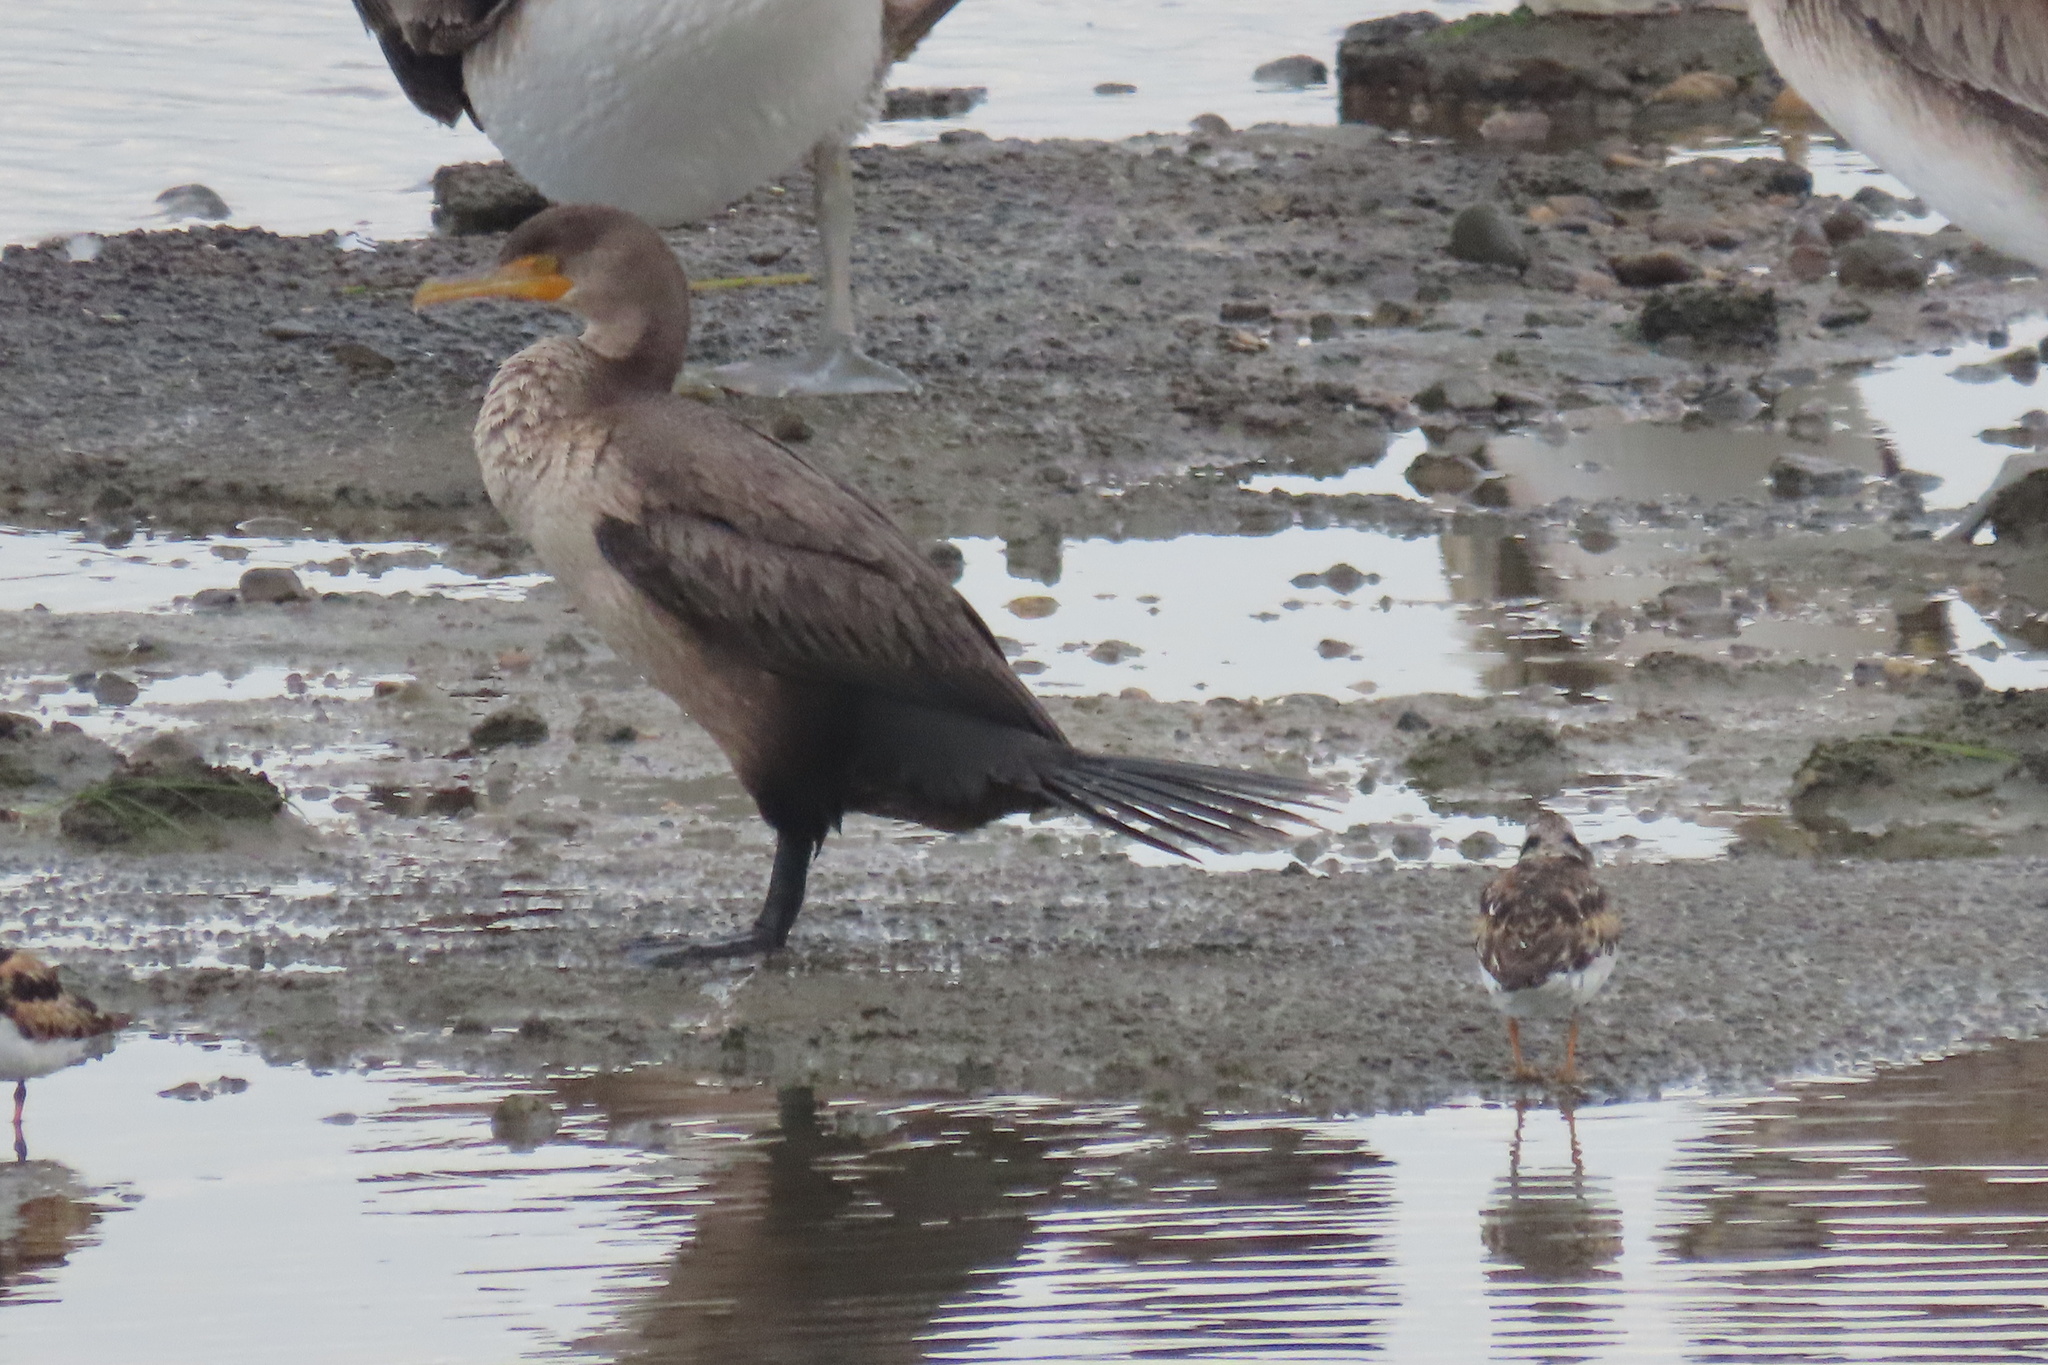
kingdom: Animalia
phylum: Chordata
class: Aves
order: Suliformes
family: Phalacrocoracidae
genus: Phalacrocorax
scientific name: Phalacrocorax auritus
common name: Double-crested cormorant
